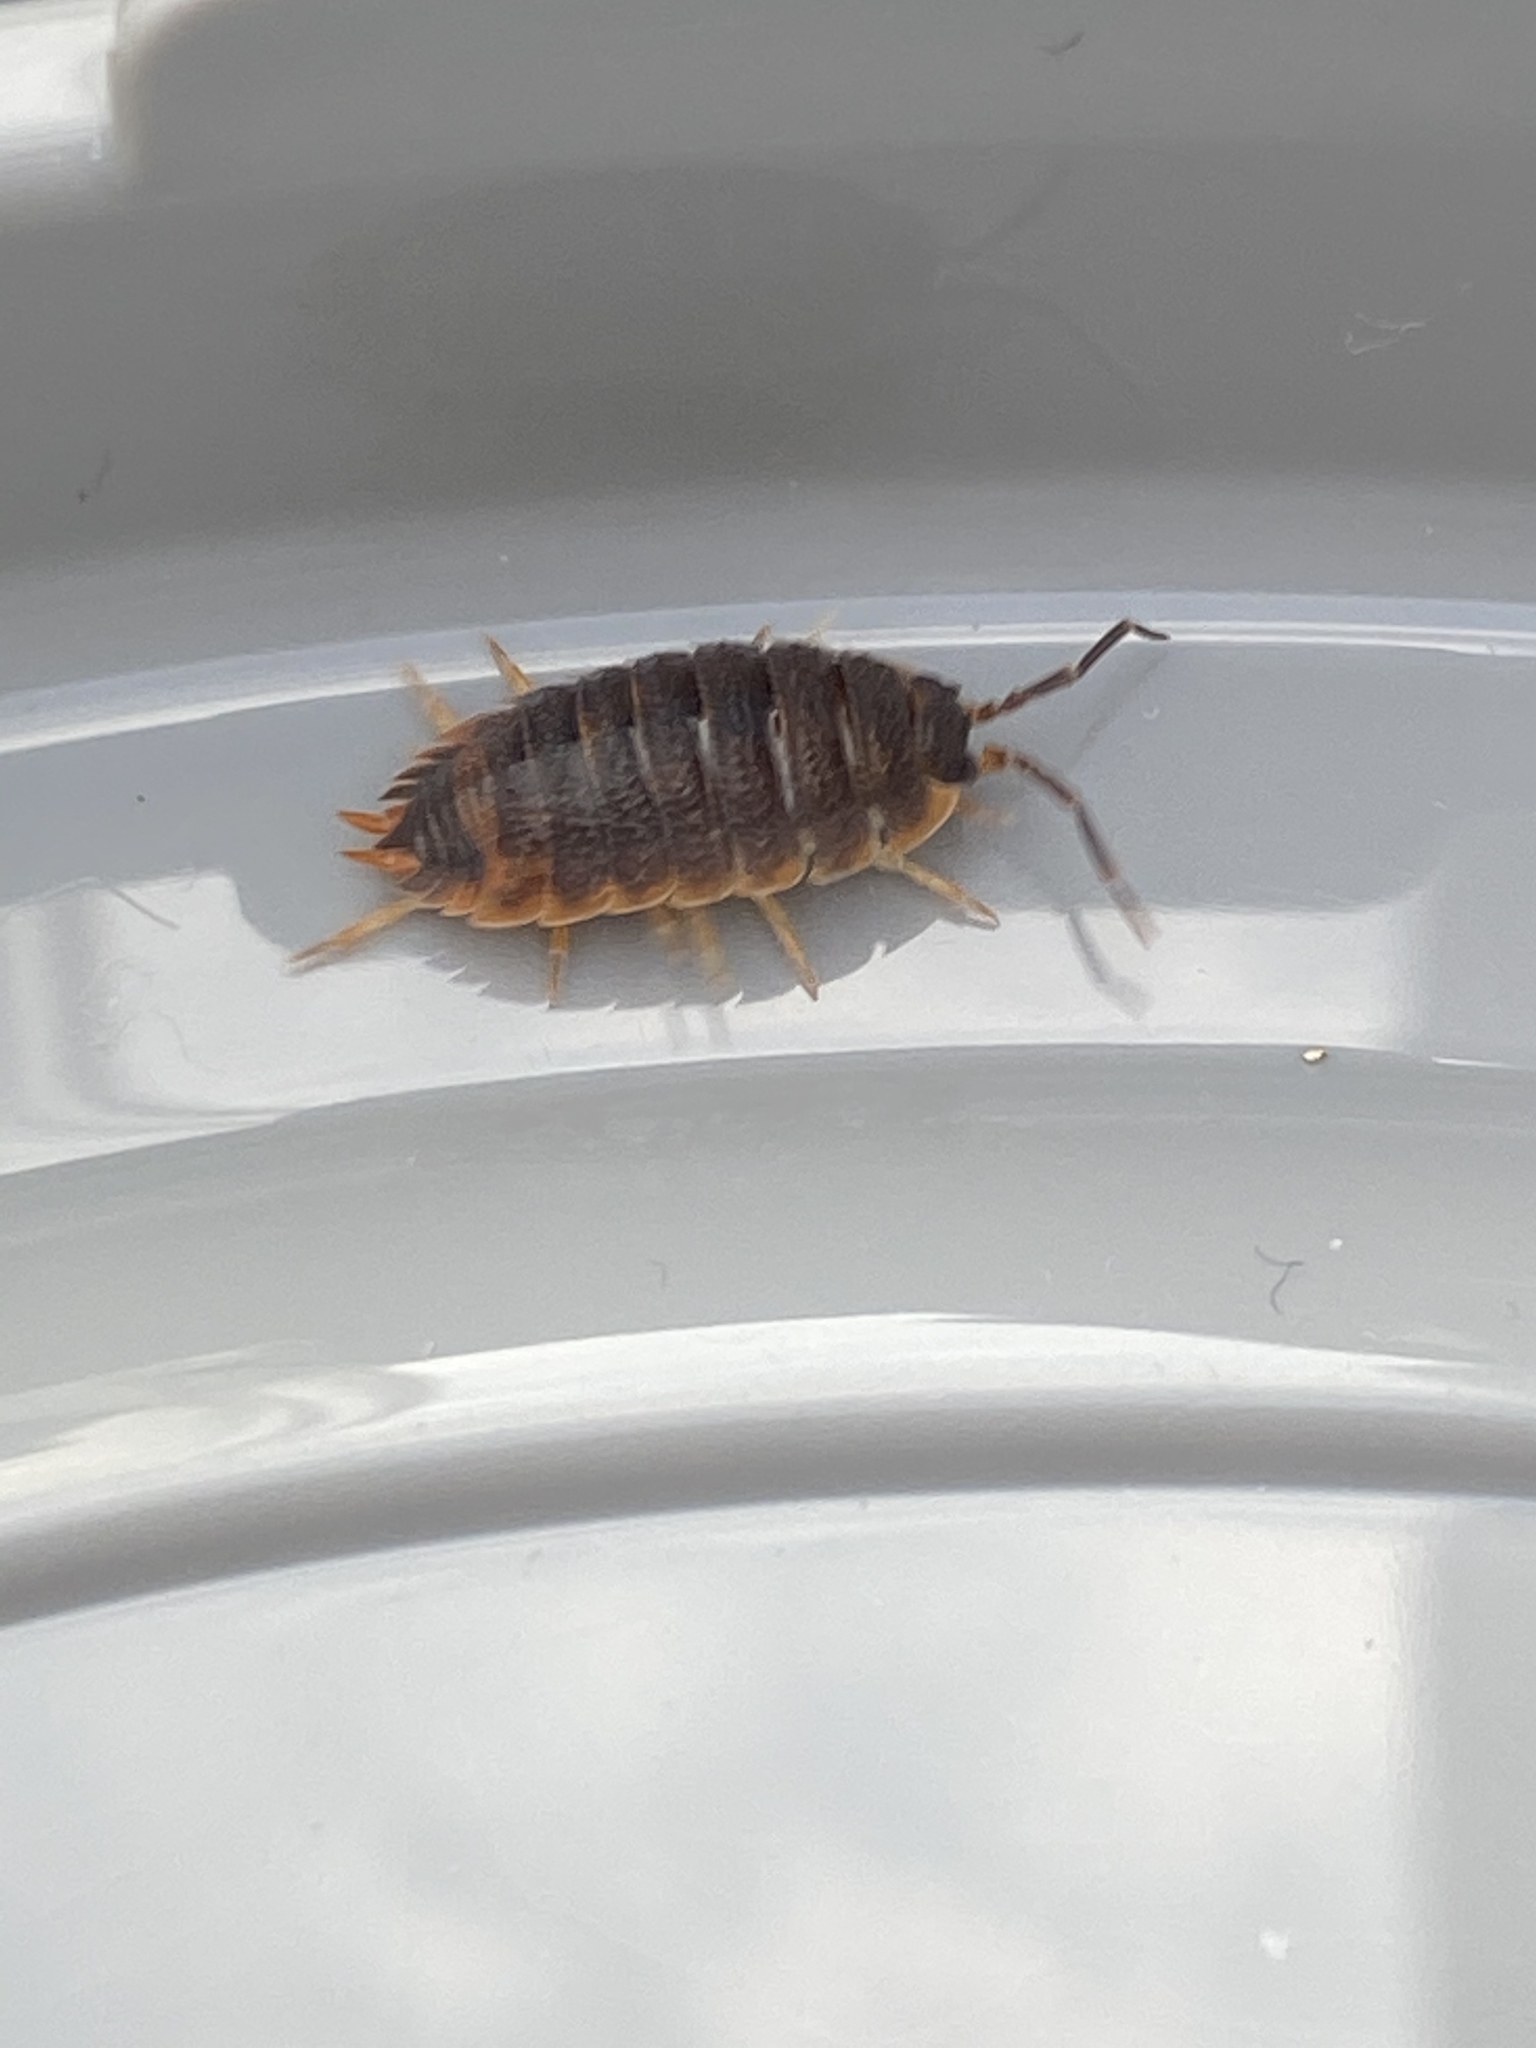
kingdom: Animalia
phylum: Arthropoda
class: Malacostraca
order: Isopoda
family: Porcellionidae
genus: Porcellio
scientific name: Porcellio scaber
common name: Common rough woodlouse
